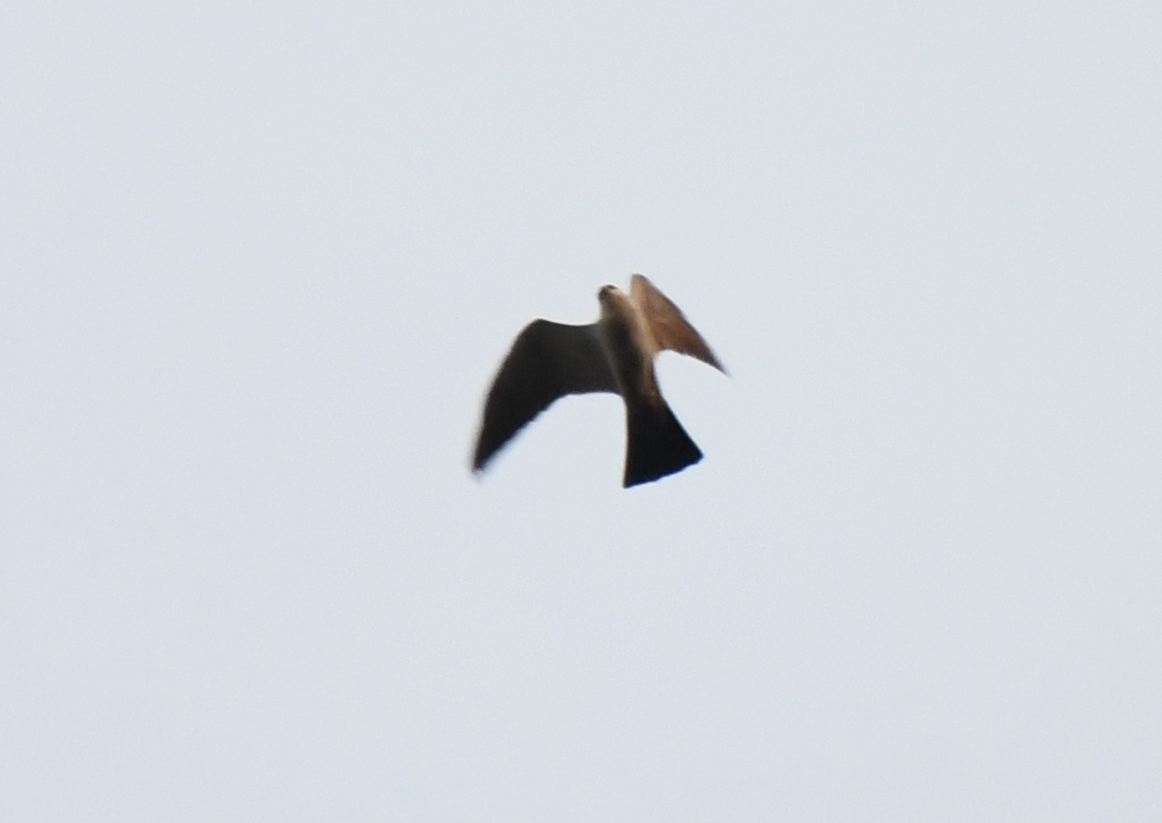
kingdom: Animalia
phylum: Chordata
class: Aves
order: Accipitriformes
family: Accipitridae
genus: Ictinia
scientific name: Ictinia mississippiensis
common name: Mississippi kite
